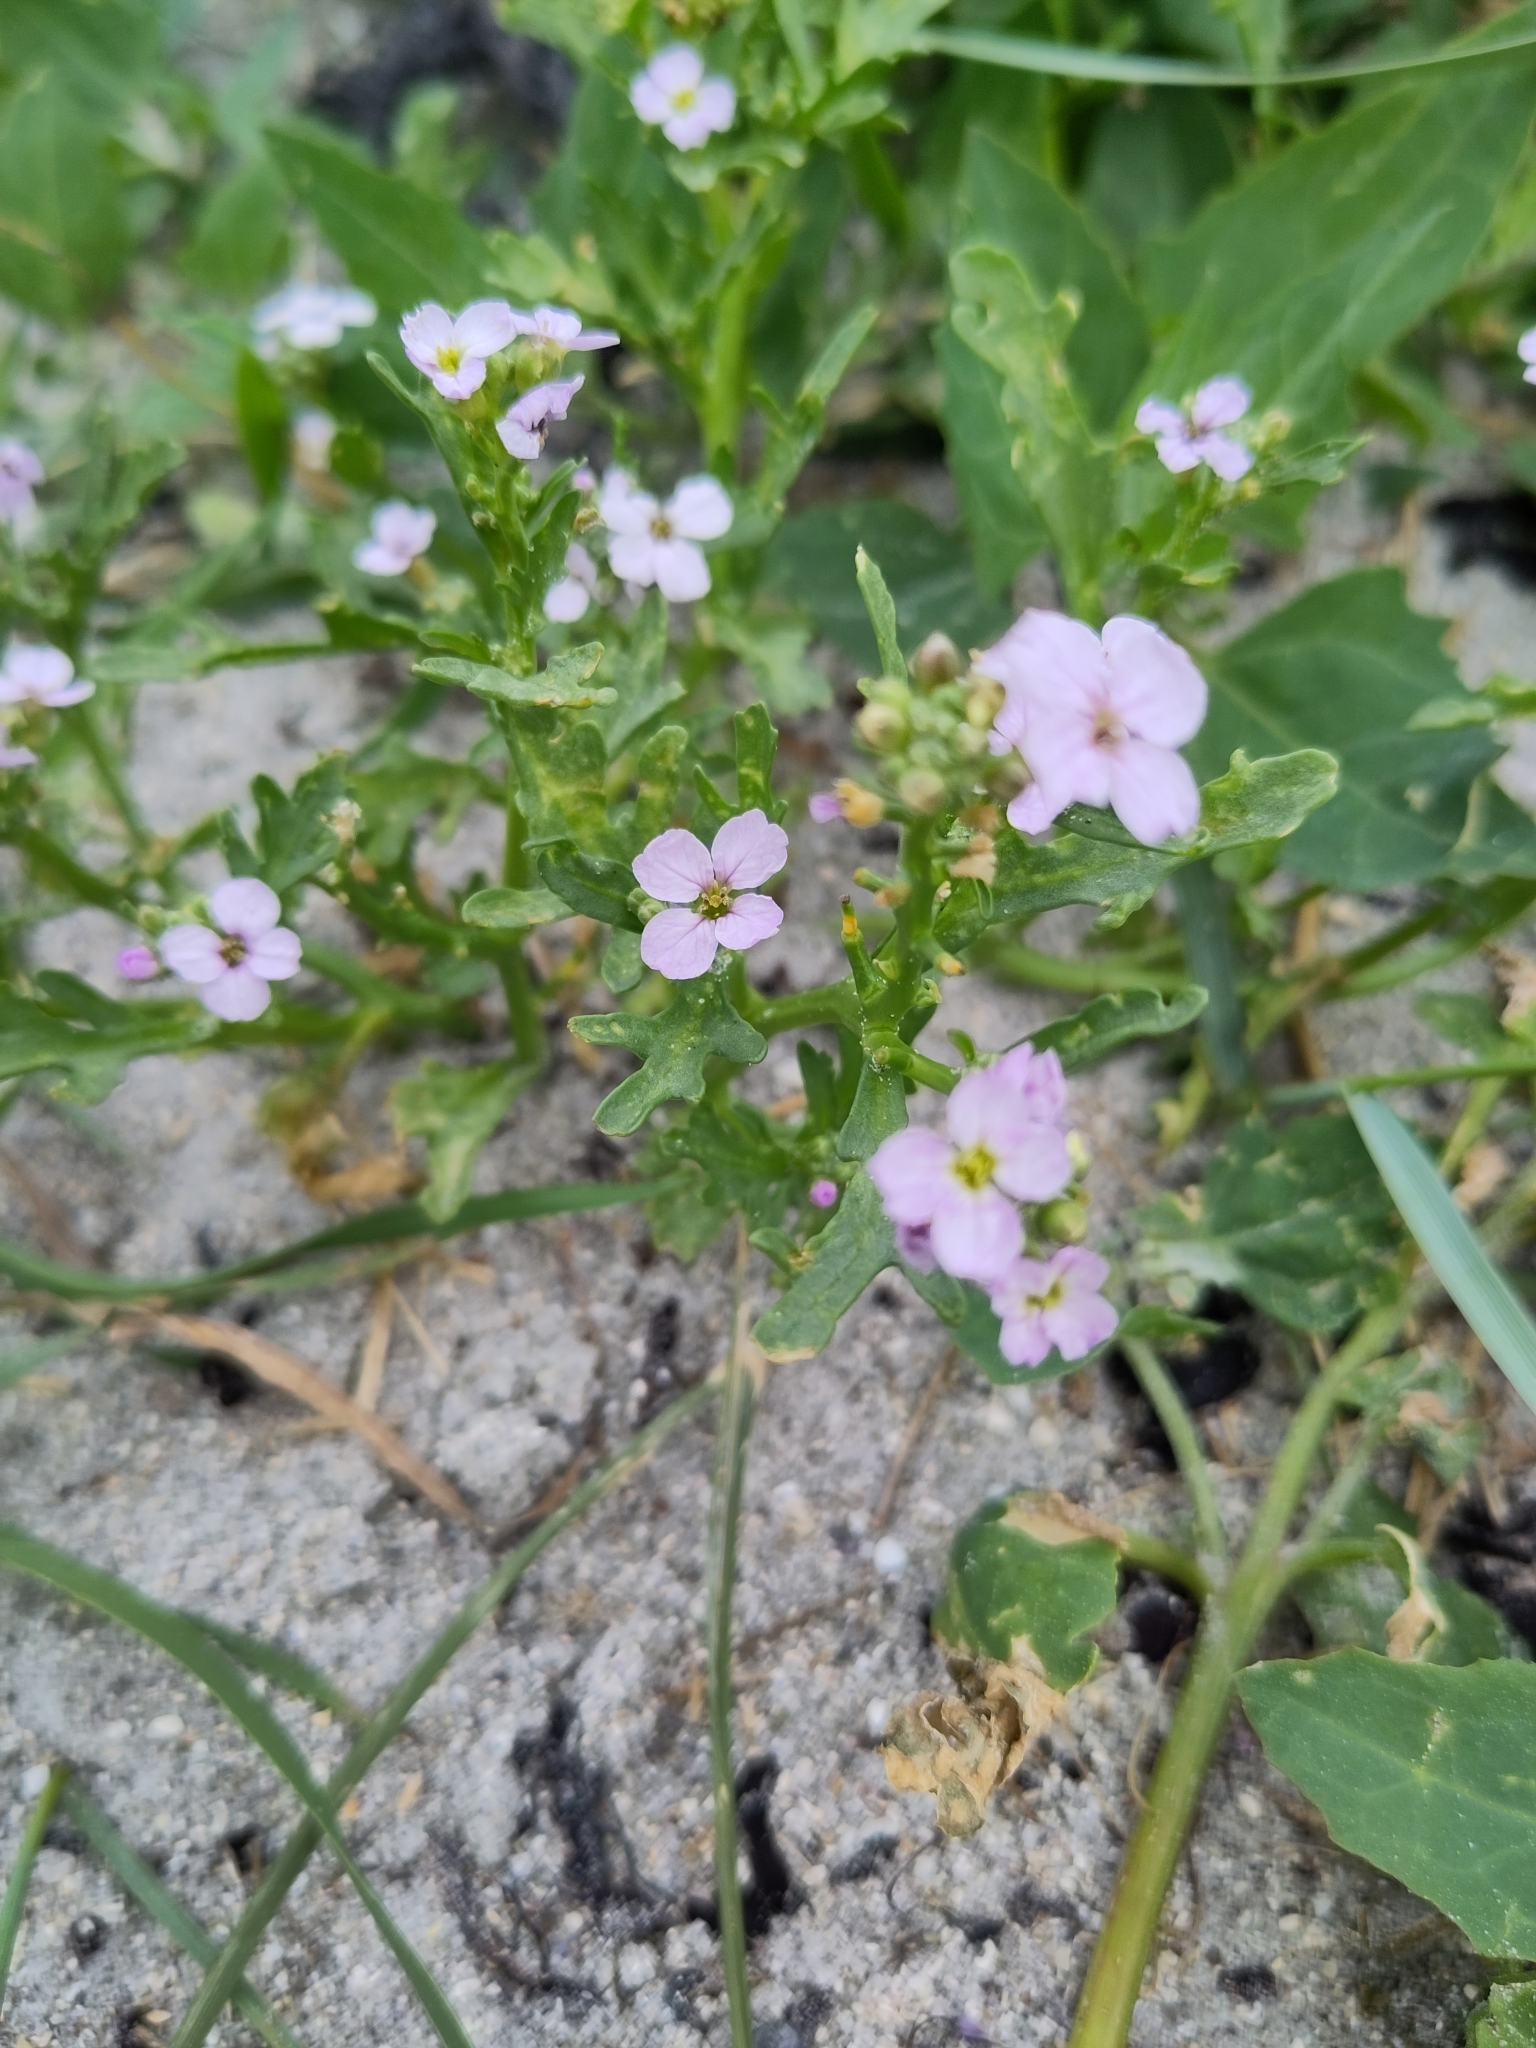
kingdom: Plantae
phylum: Tracheophyta
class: Magnoliopsida
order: Brassicales
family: Brassicaceae
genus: Cakile
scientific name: Cakile maritima
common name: Sea rocket
